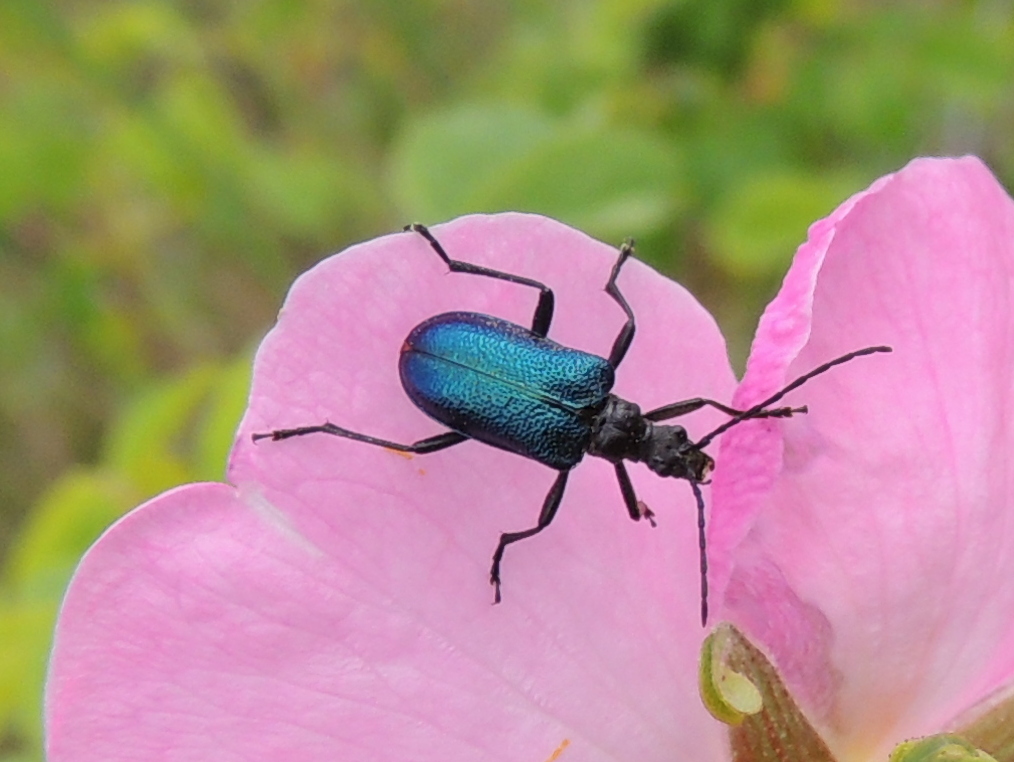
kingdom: Animalia
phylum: Arthropoda
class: Insecta
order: Coleoptera
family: Cerambycidae
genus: Gaurotes
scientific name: Gaurotes virginea
